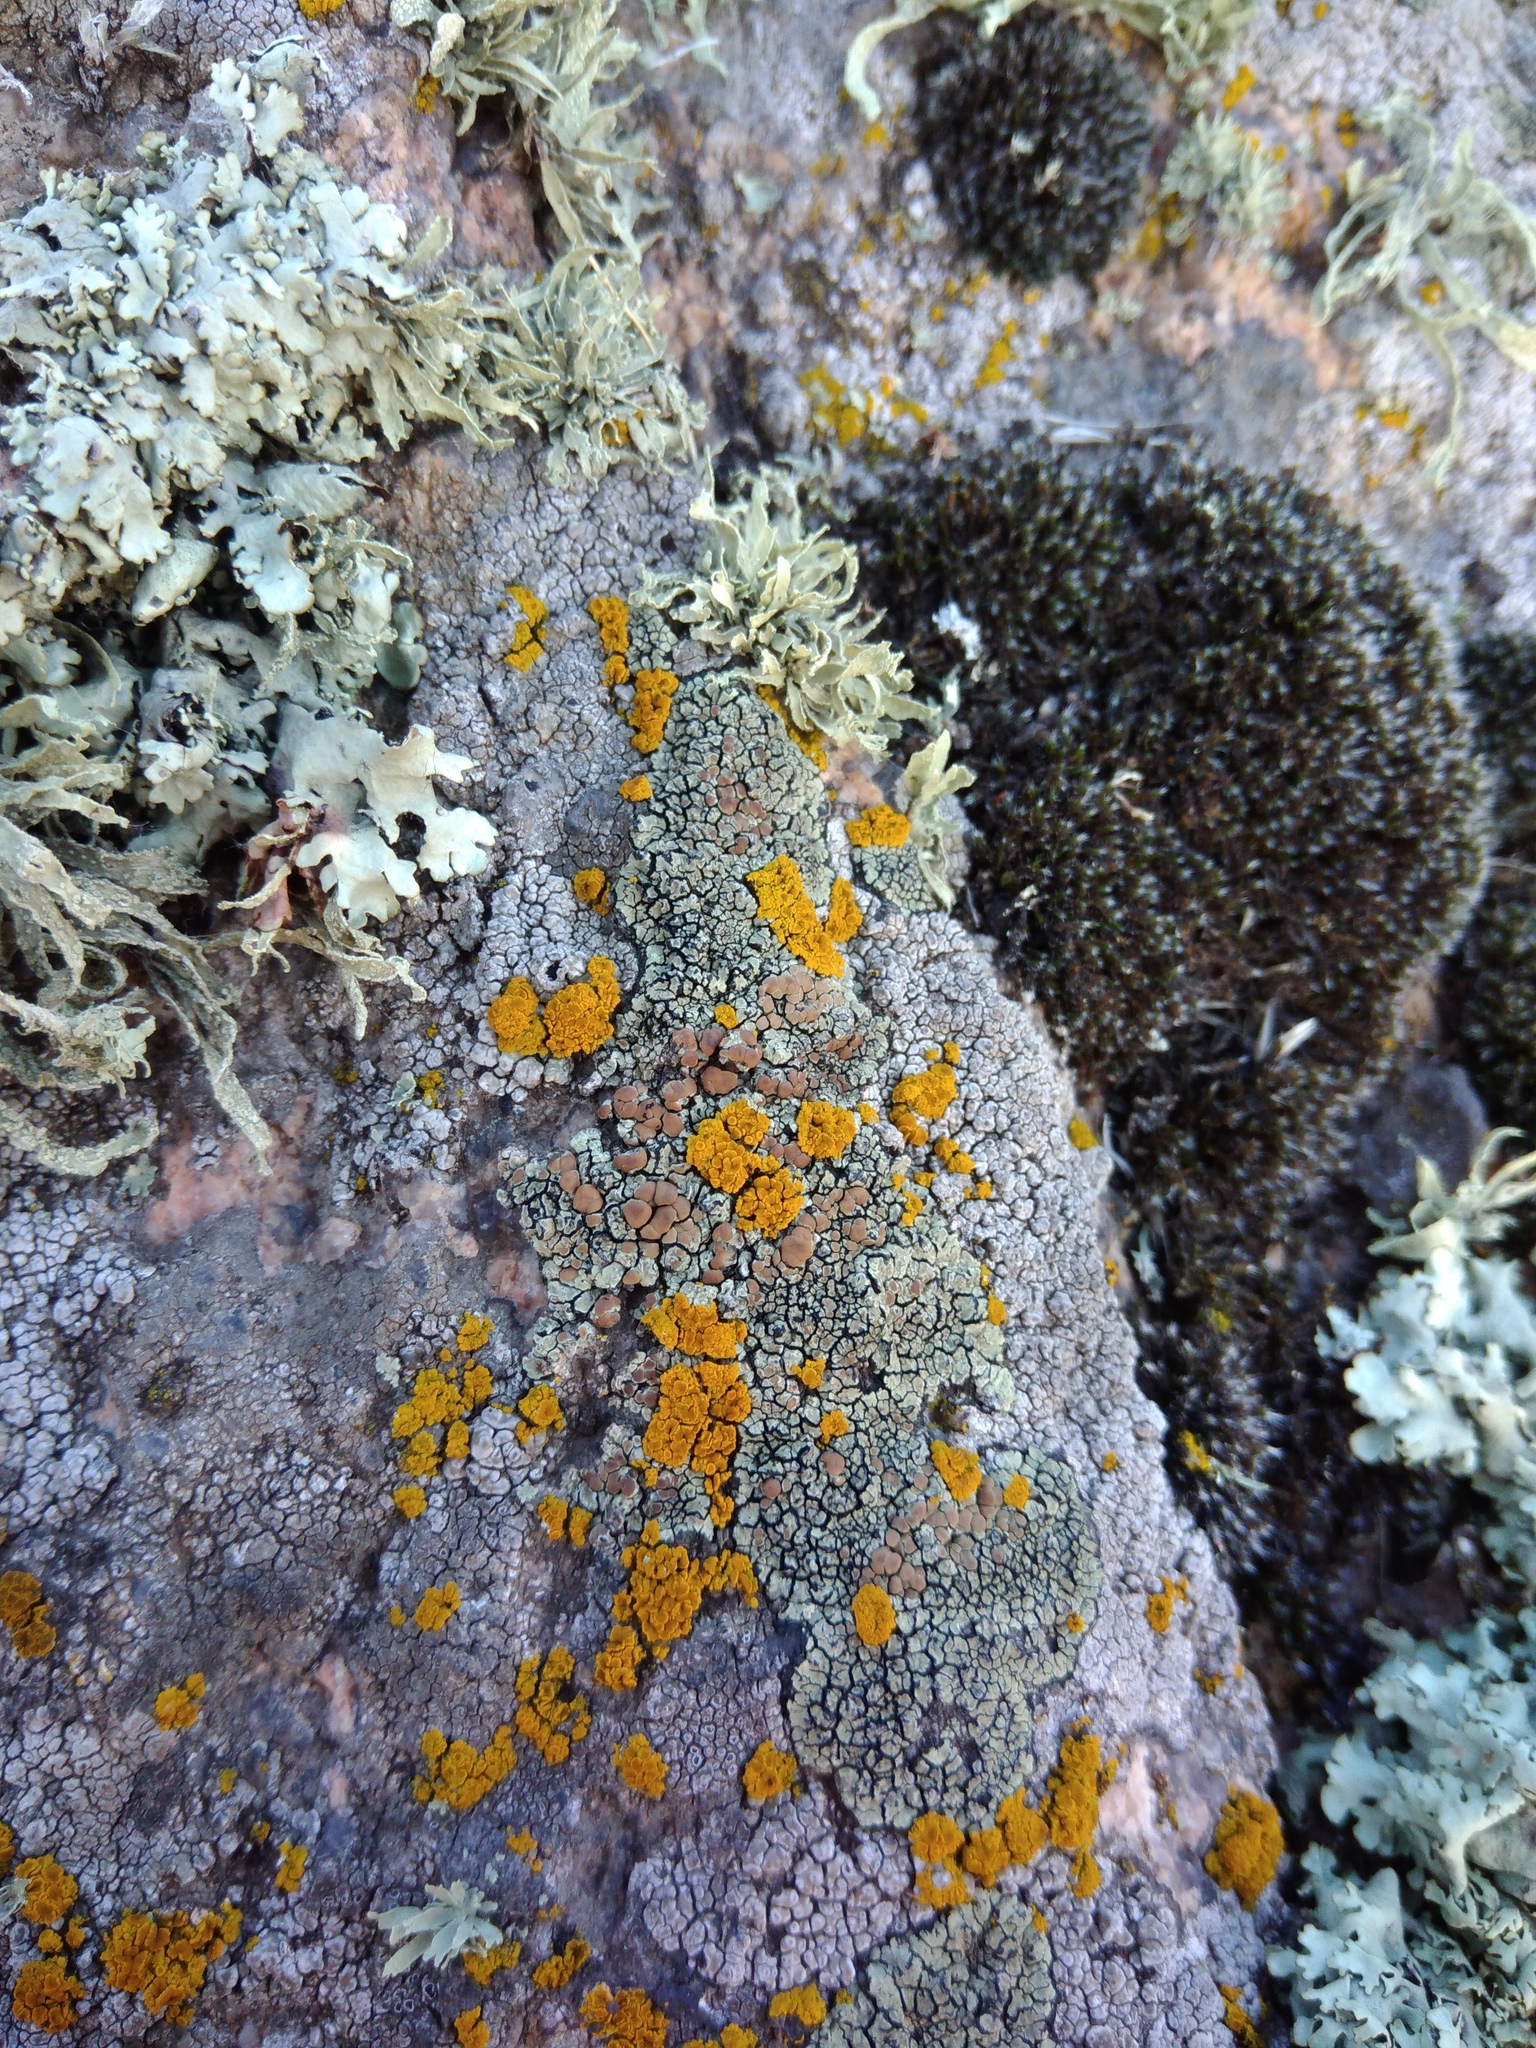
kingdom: Fungi
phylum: Ascomycota
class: Lecanoromycetes
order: Lecanorales
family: Lecanoraceae
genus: Protoparmeliopsis
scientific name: Protoparmeliopsis laatokkensis
